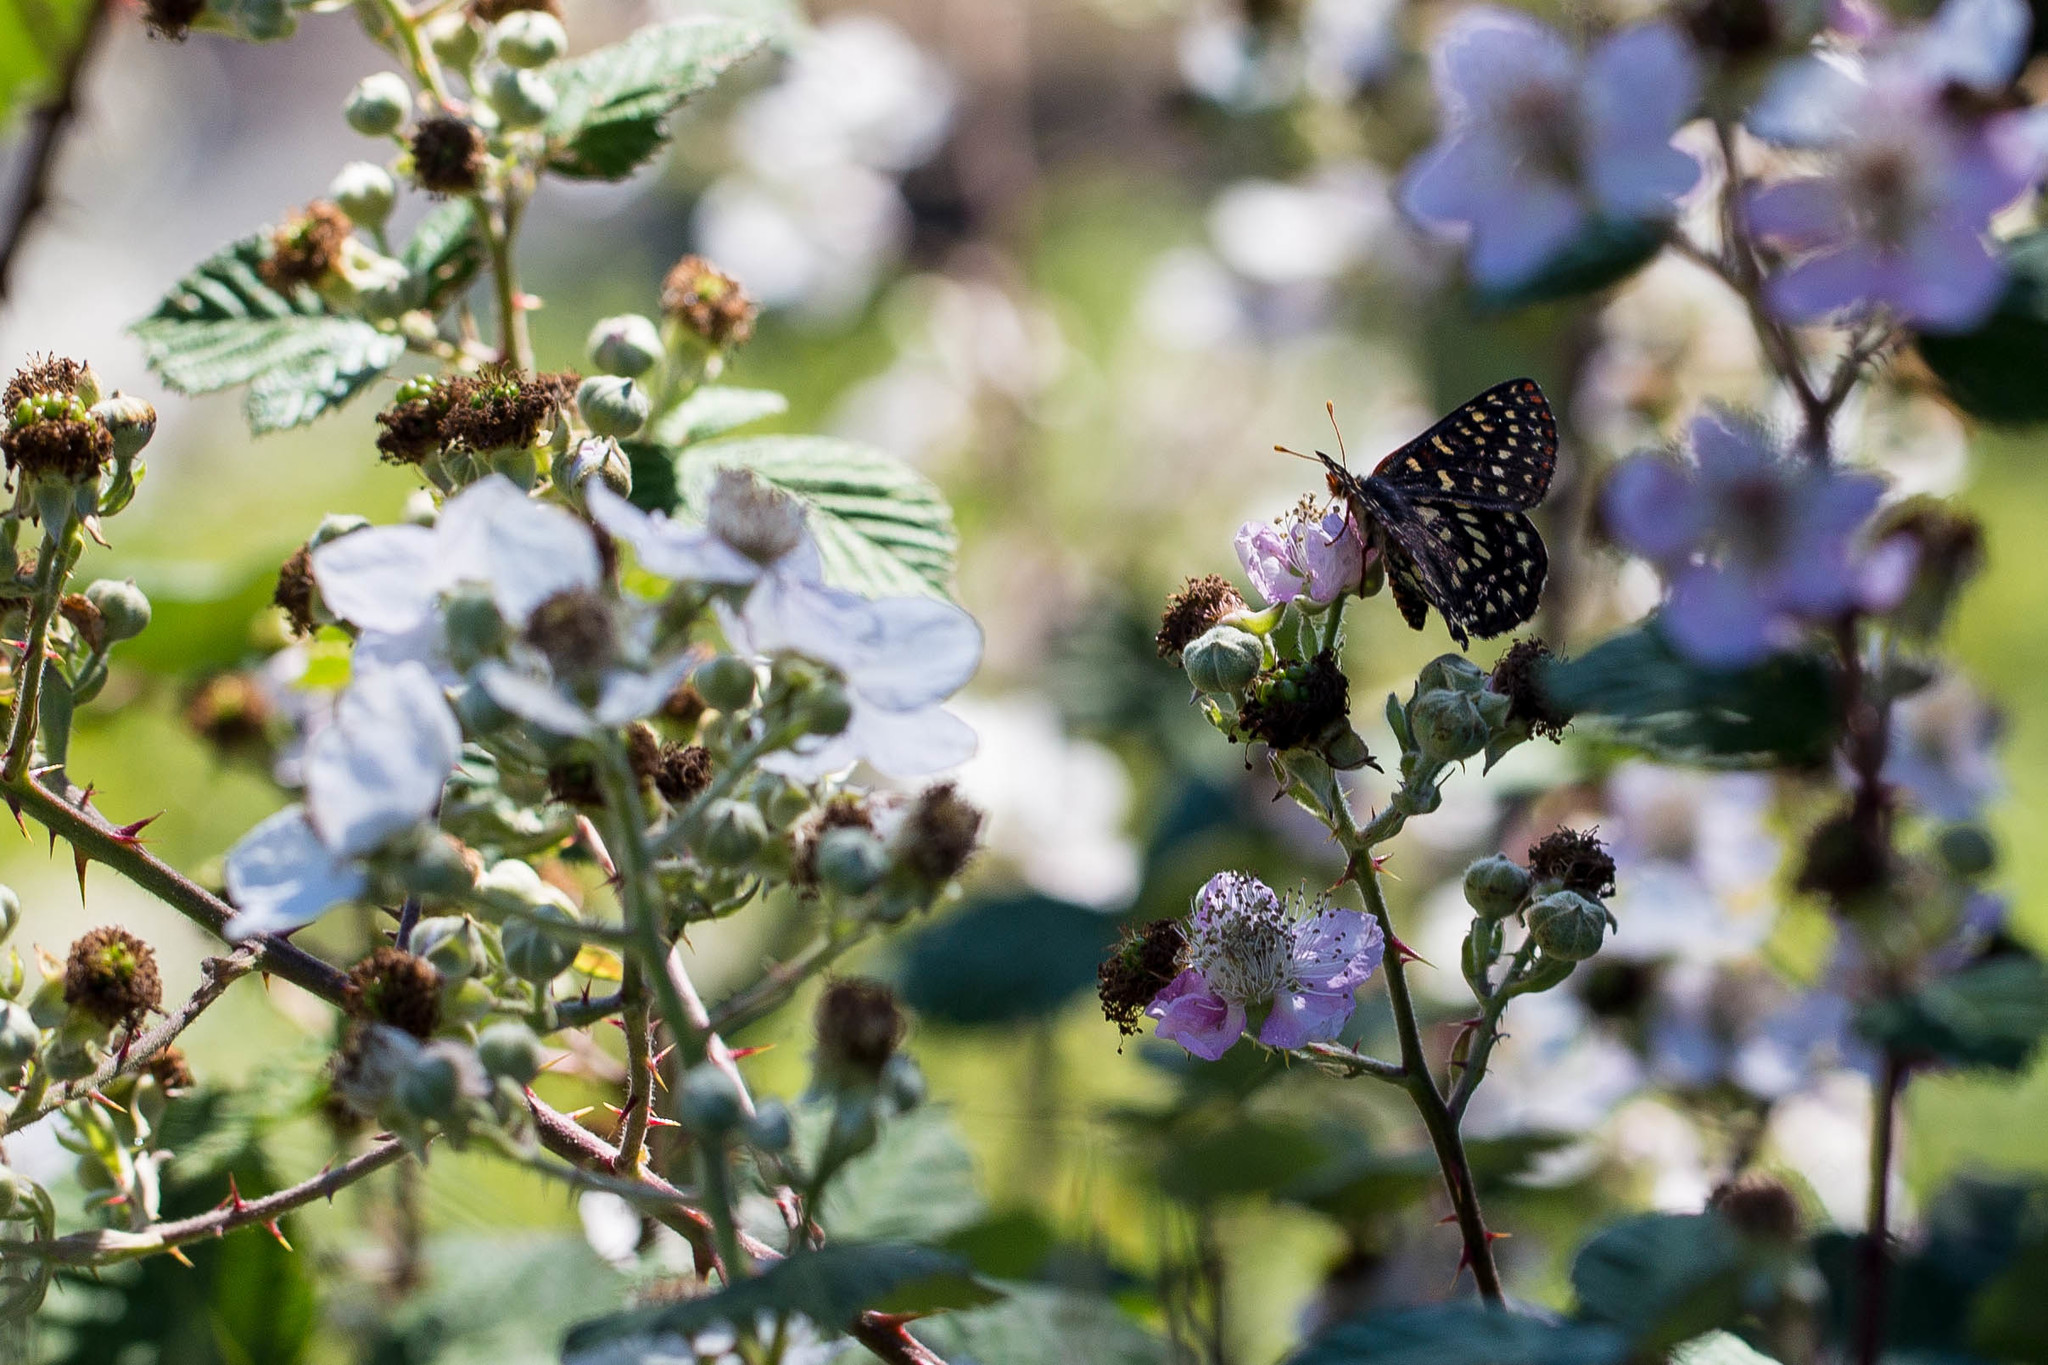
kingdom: Animalia
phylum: Arthropoda
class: Insecta
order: Lepidoptera
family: Nymphalidae
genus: Occidryas
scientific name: Occidryas chalcedona
